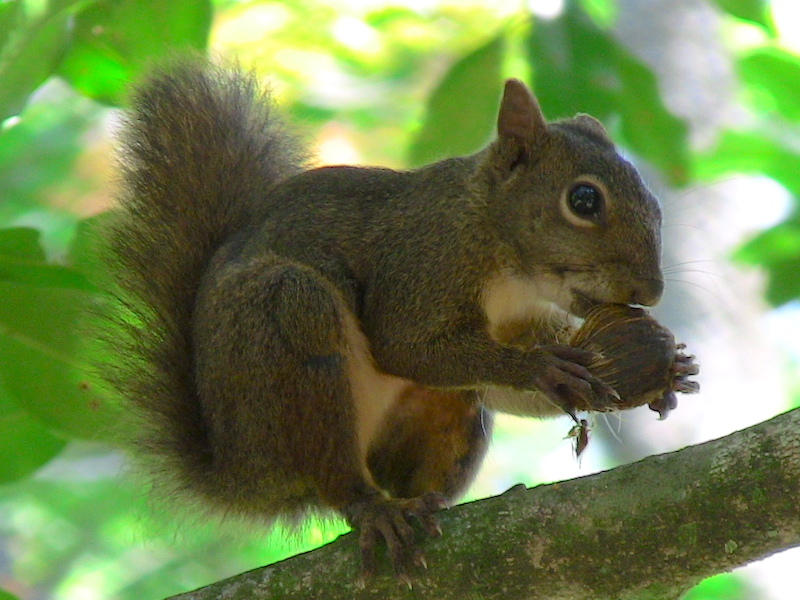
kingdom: Animalia
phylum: Chordata
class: Mammalia
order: Rodentia
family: Sciuridae
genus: Sciurus
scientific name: Sciurus aestuans
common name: Guianan squirrel
